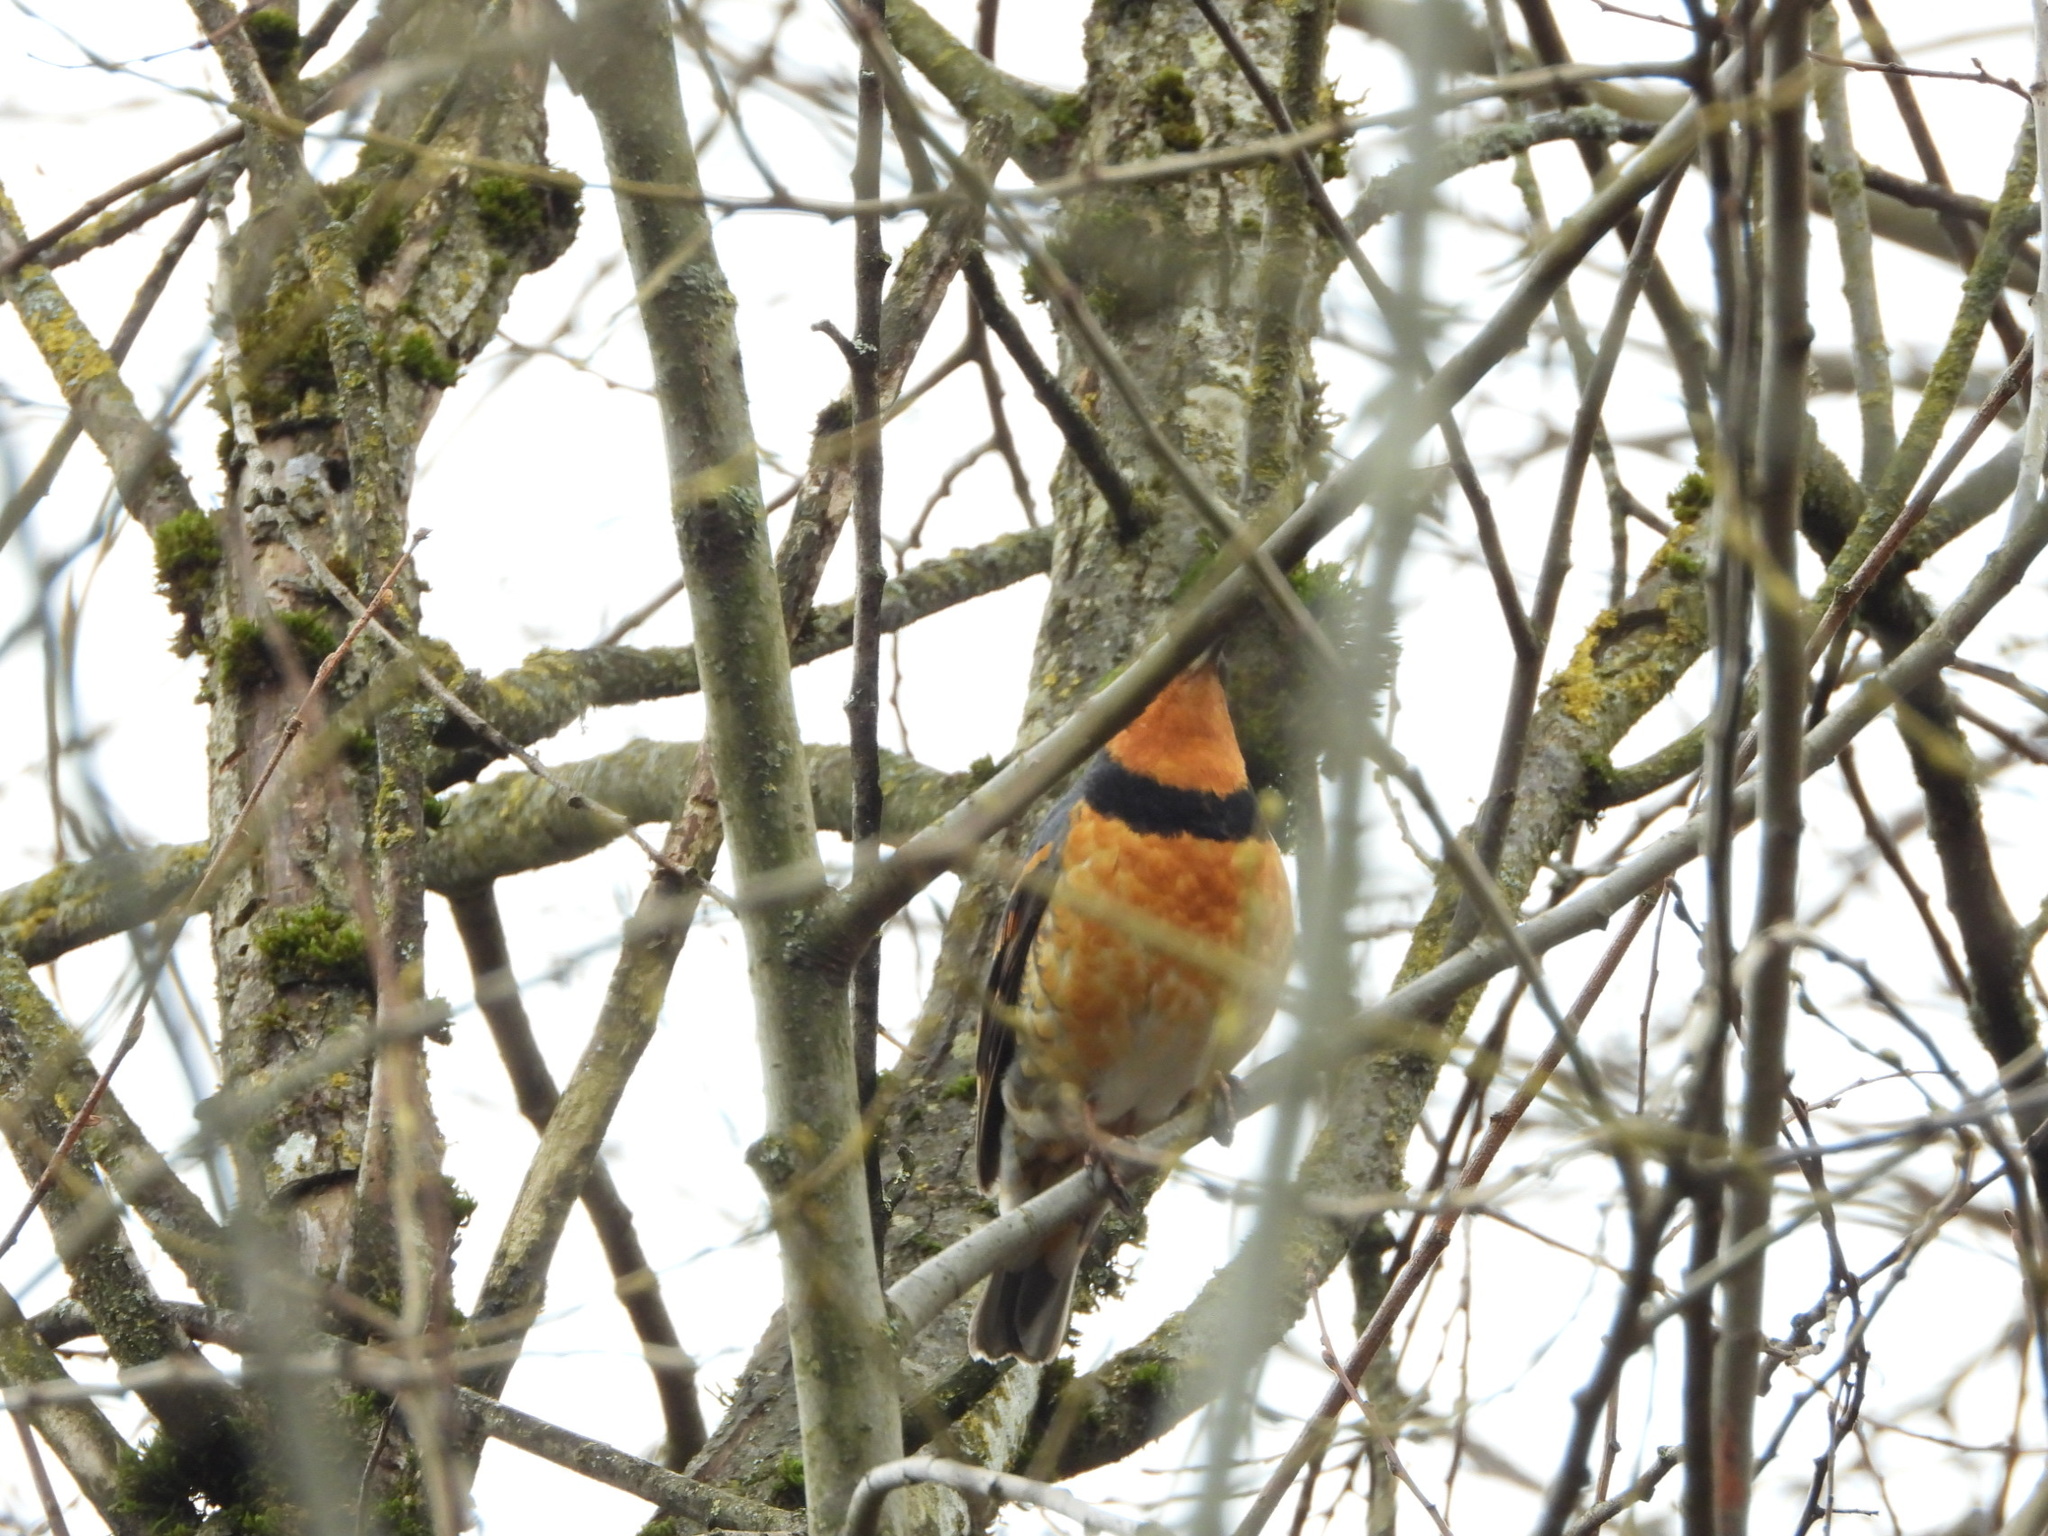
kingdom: Animalia
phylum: Chordata
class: Aves
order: Passeriformes
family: Turdidae
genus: Ixoreus
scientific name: Ixoreus naevius
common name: Varied thrush
